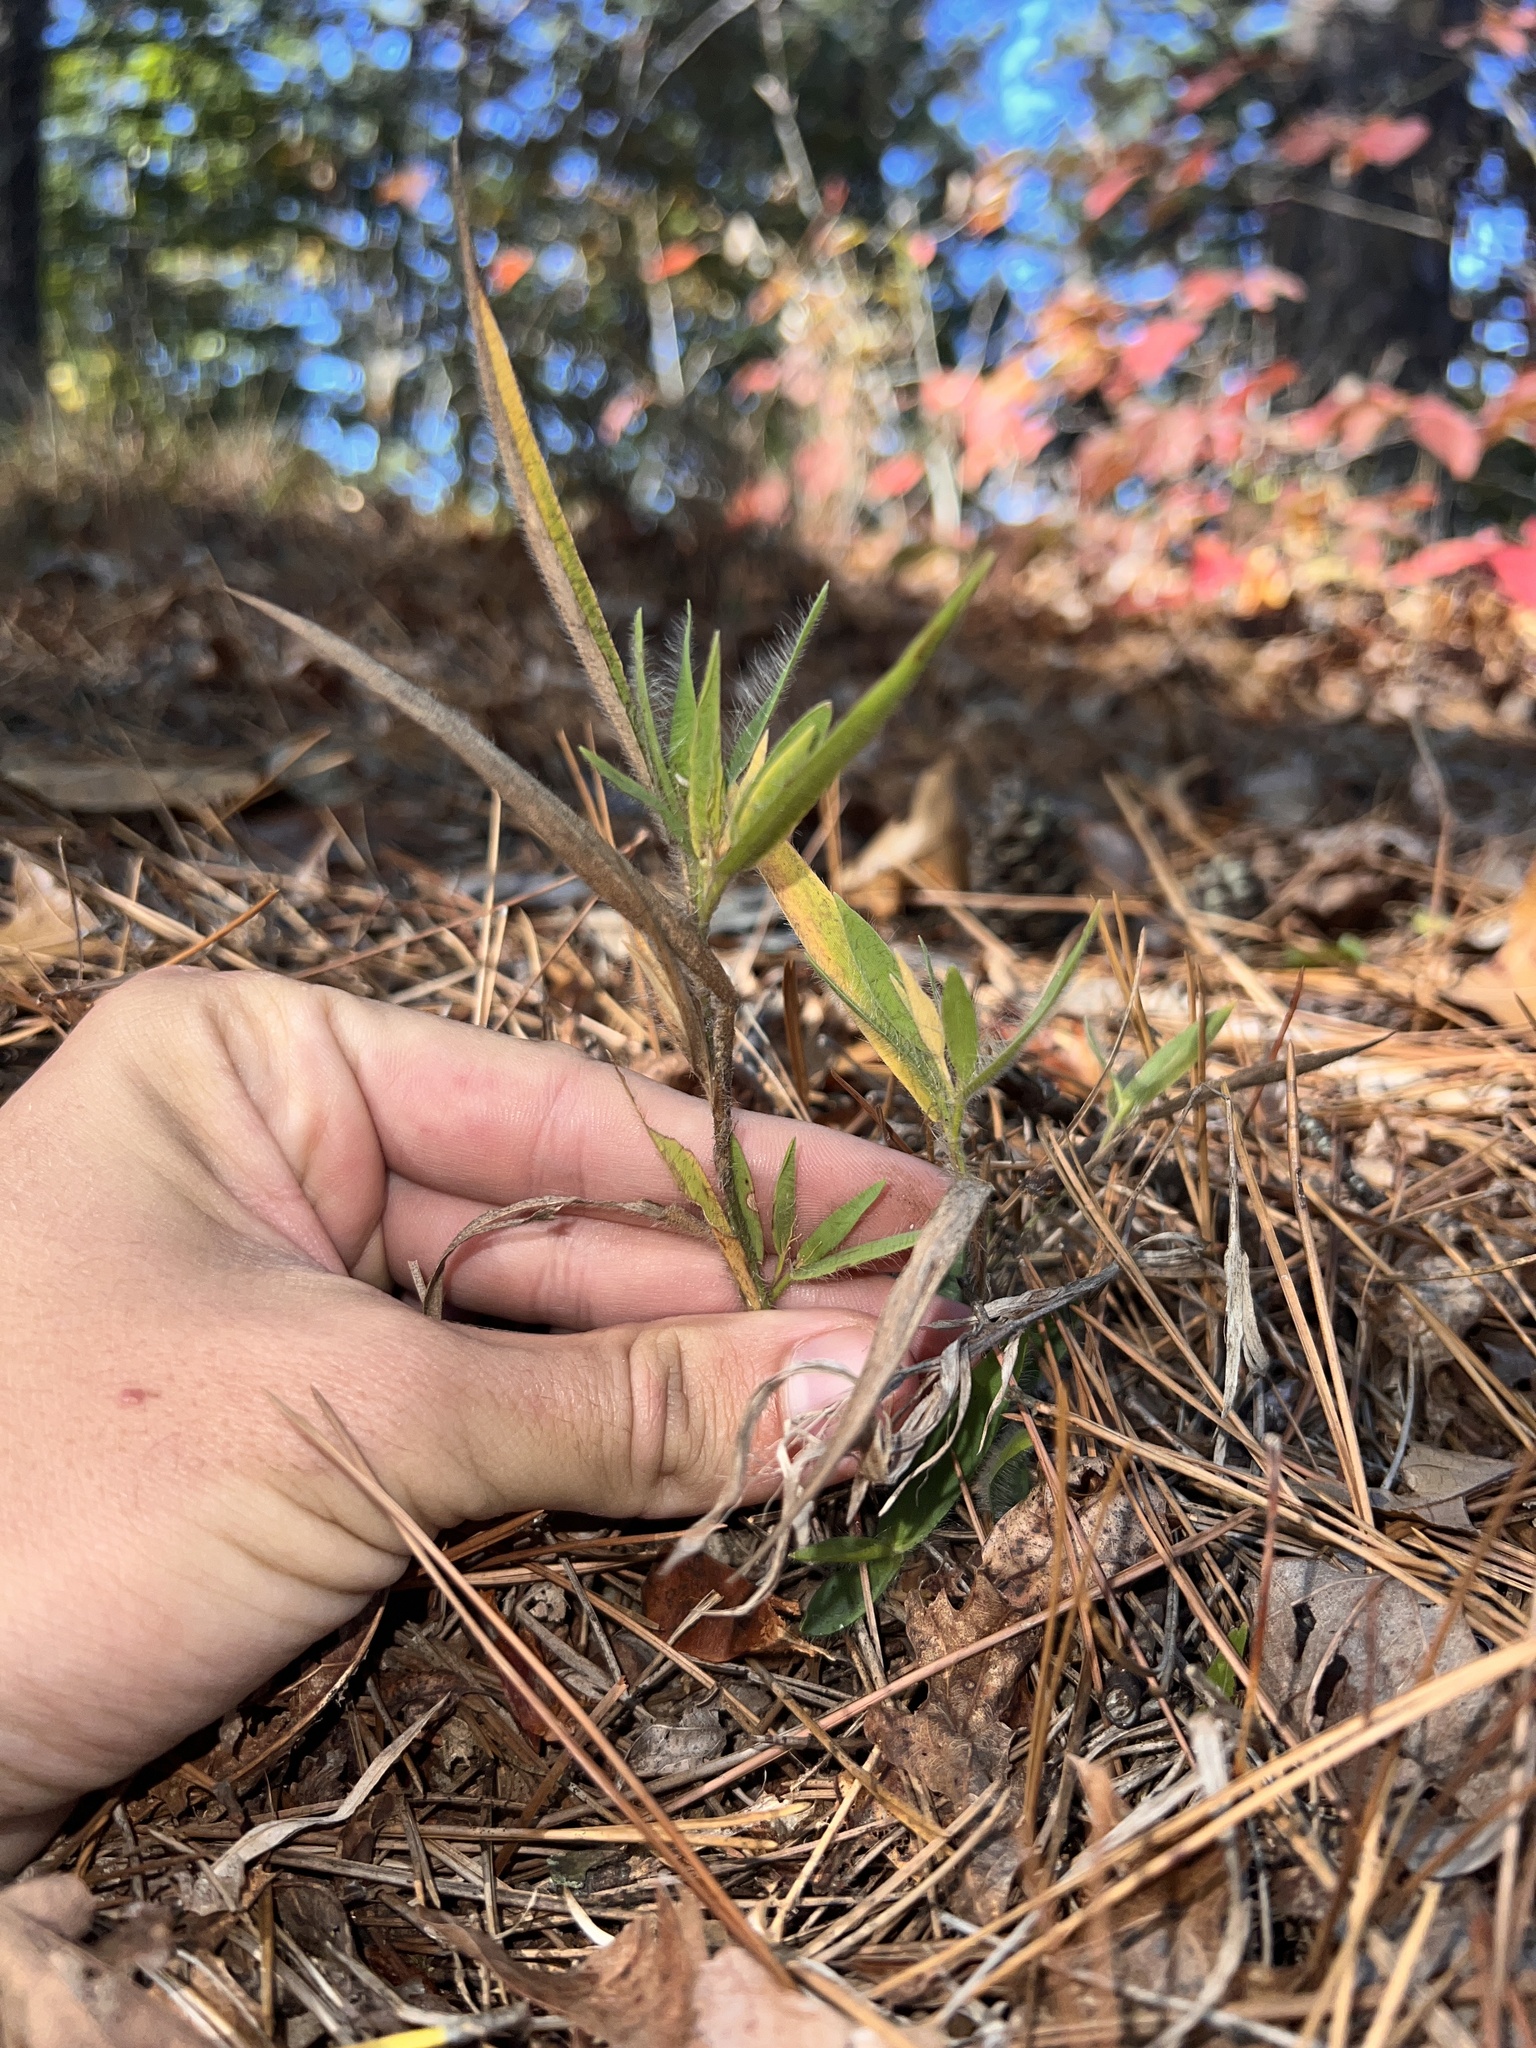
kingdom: Plantae
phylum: Tracheophyta
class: Liliopsida
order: Poales
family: Poaceae
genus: Dichanthelium
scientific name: Dichanthelium villosissimum
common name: White-haired panicgrass
